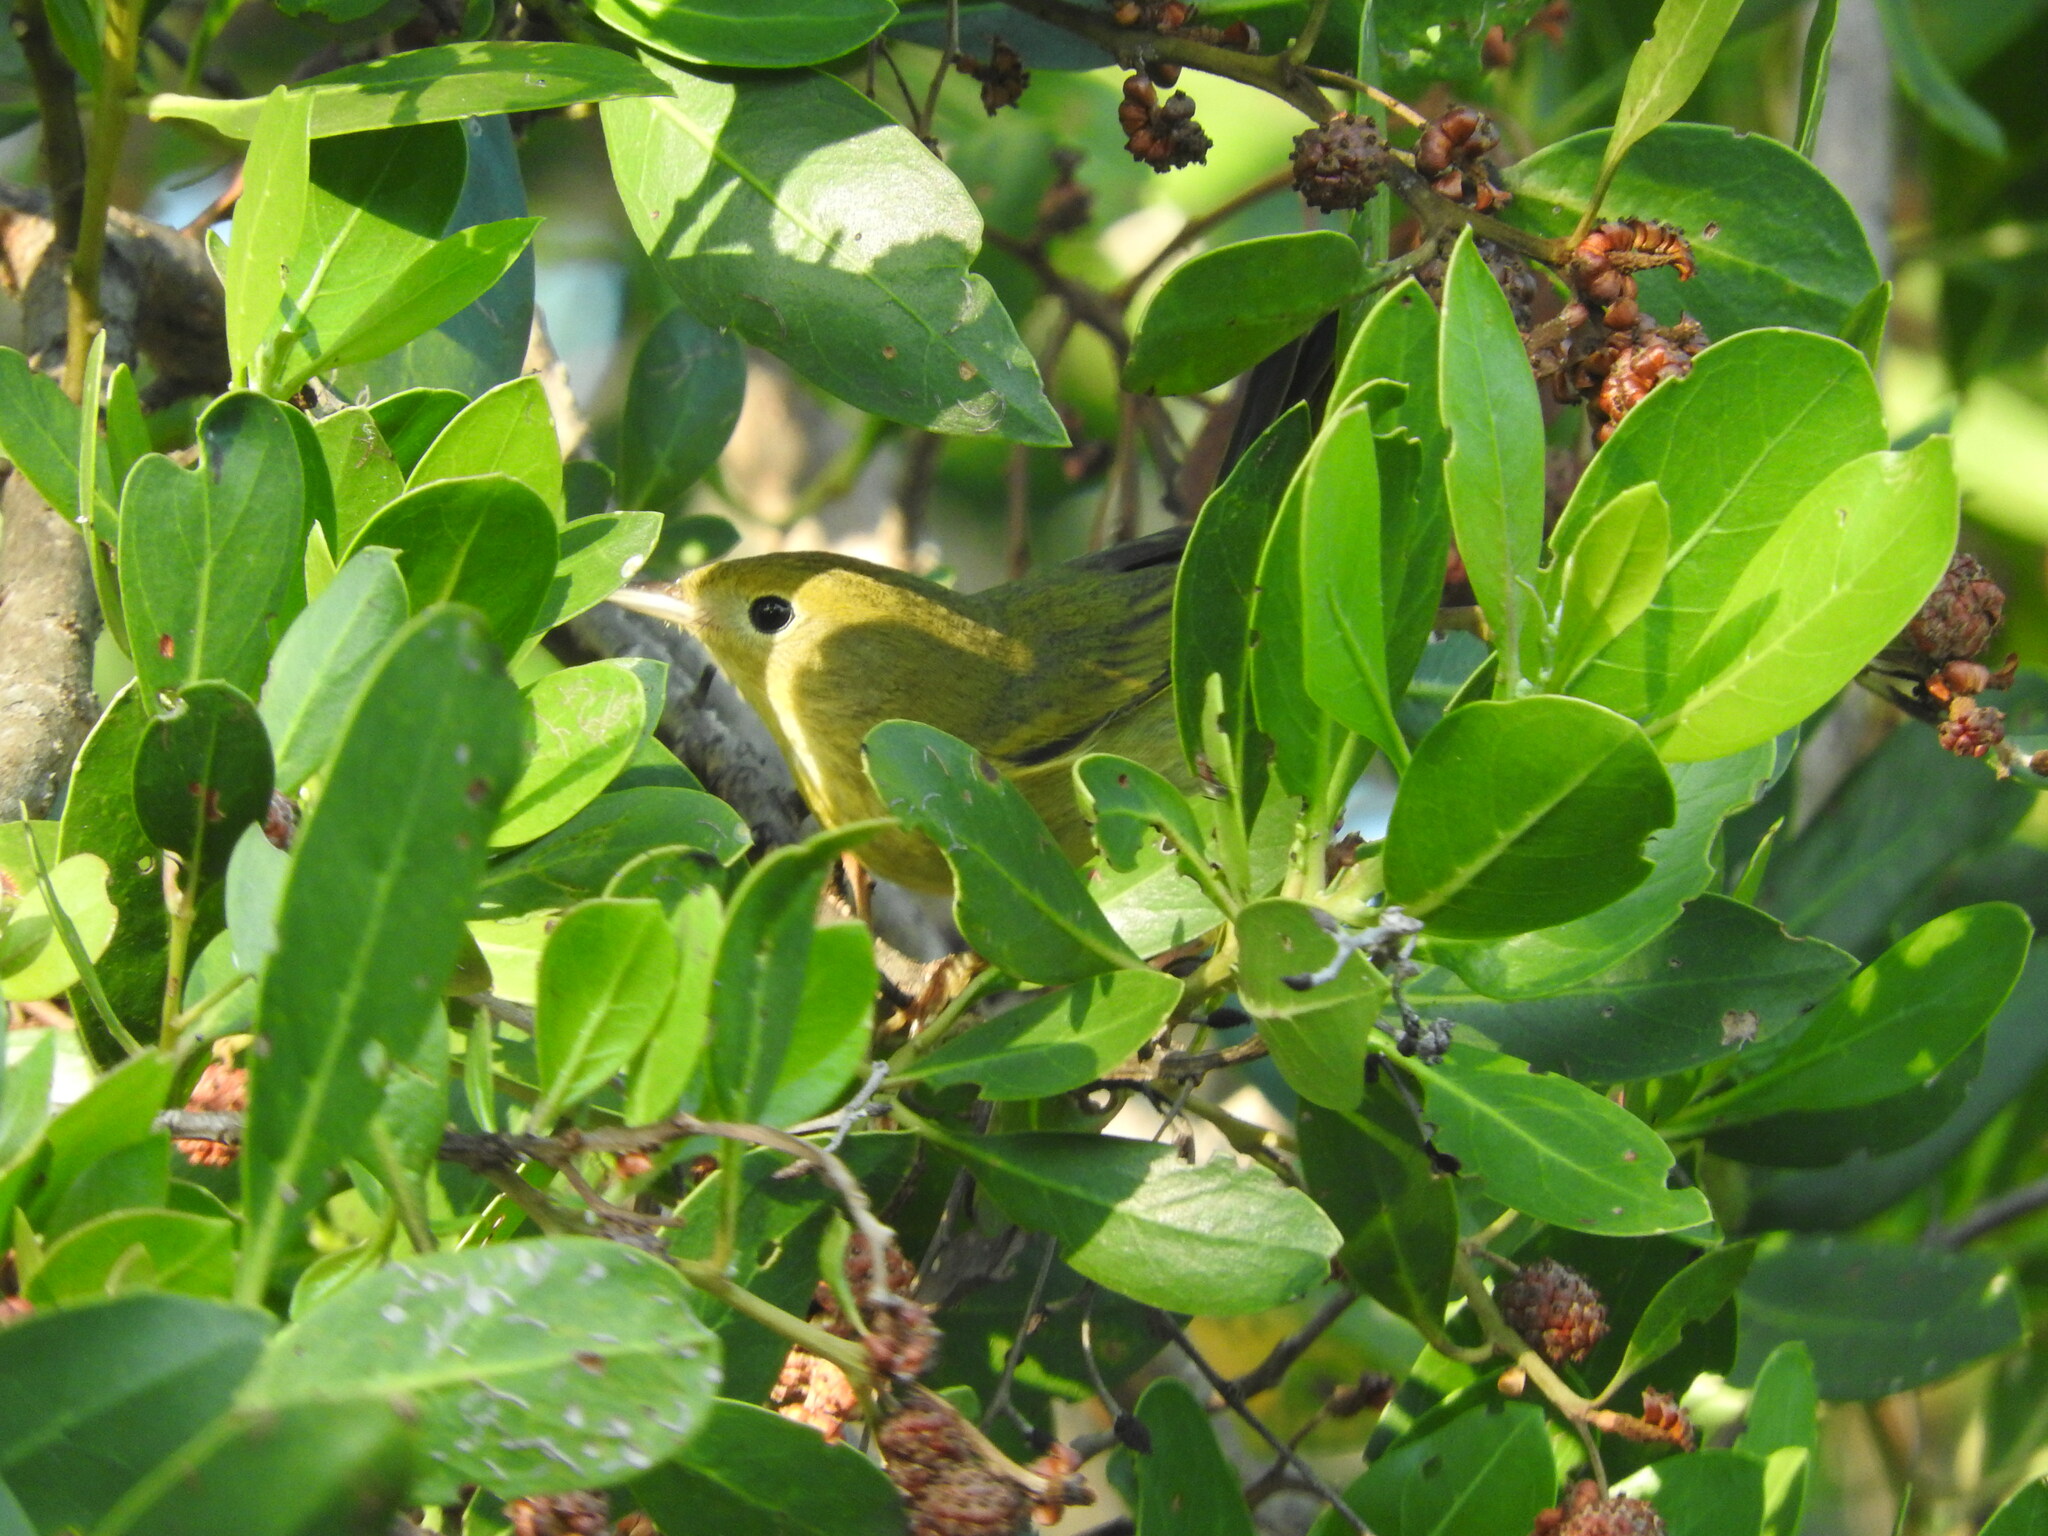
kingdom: Animalia
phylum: Chordata
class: Aves
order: Passeriformes
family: Parulidae
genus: Setophaga
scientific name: Setophaga petechia
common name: Yellow warbler
